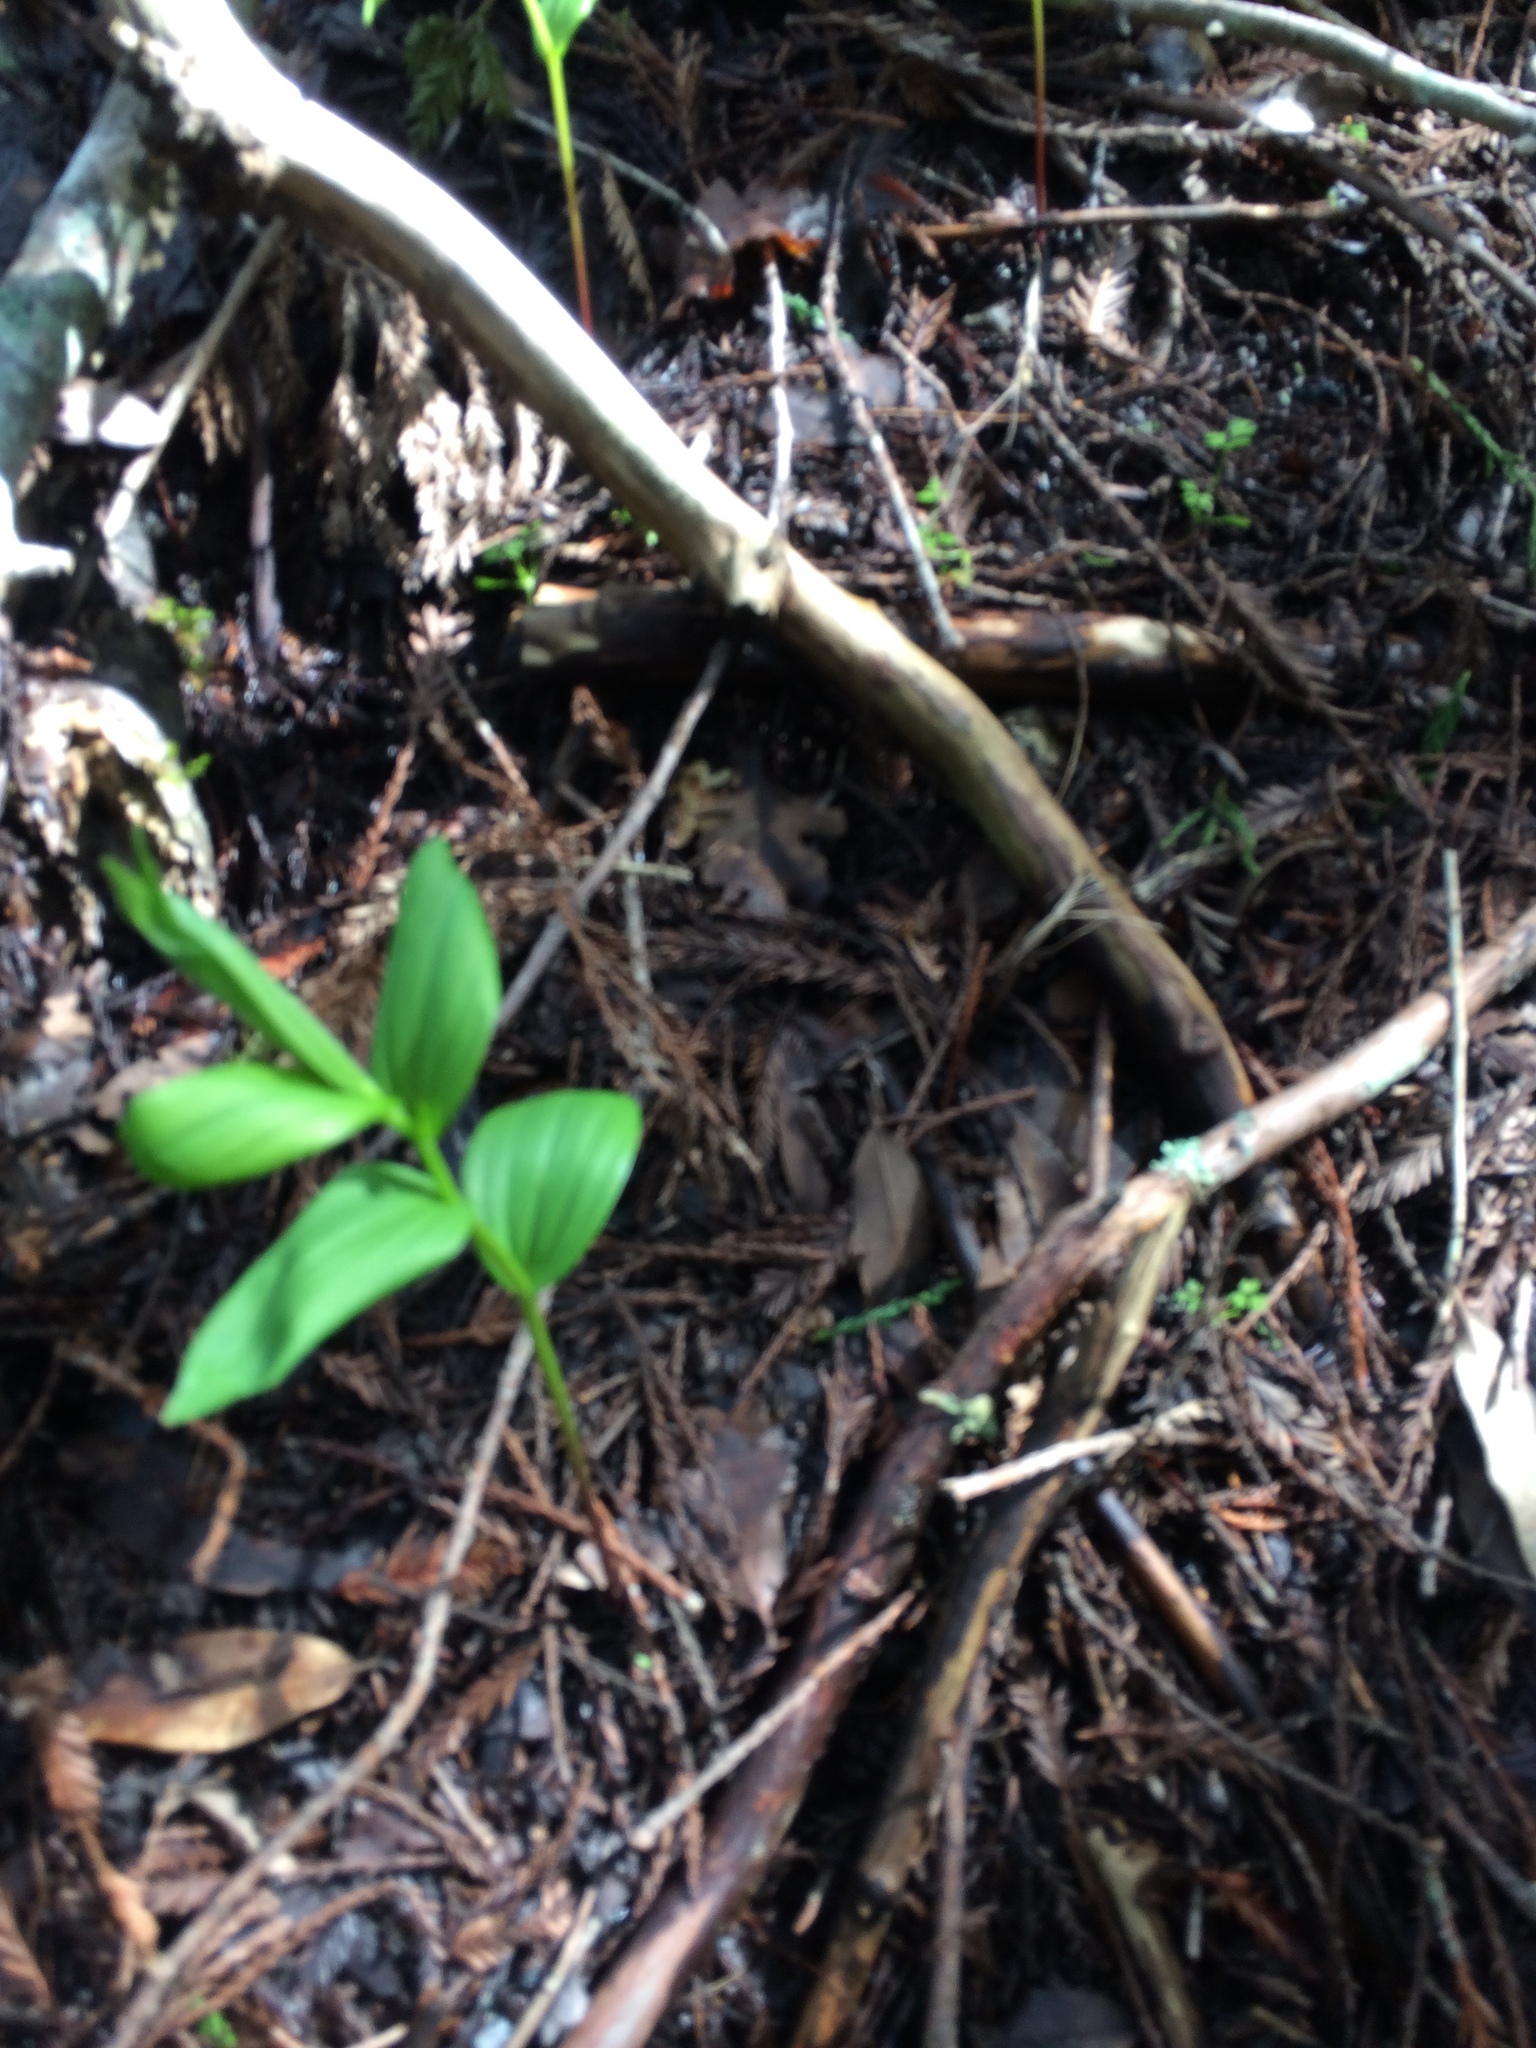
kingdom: Plantae
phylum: Tracheophyta
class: Liliopsida
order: Asparagales
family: Asparagaceae
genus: Maianthemum
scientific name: Maianthemum stellatum
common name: Little false solomon's seal
